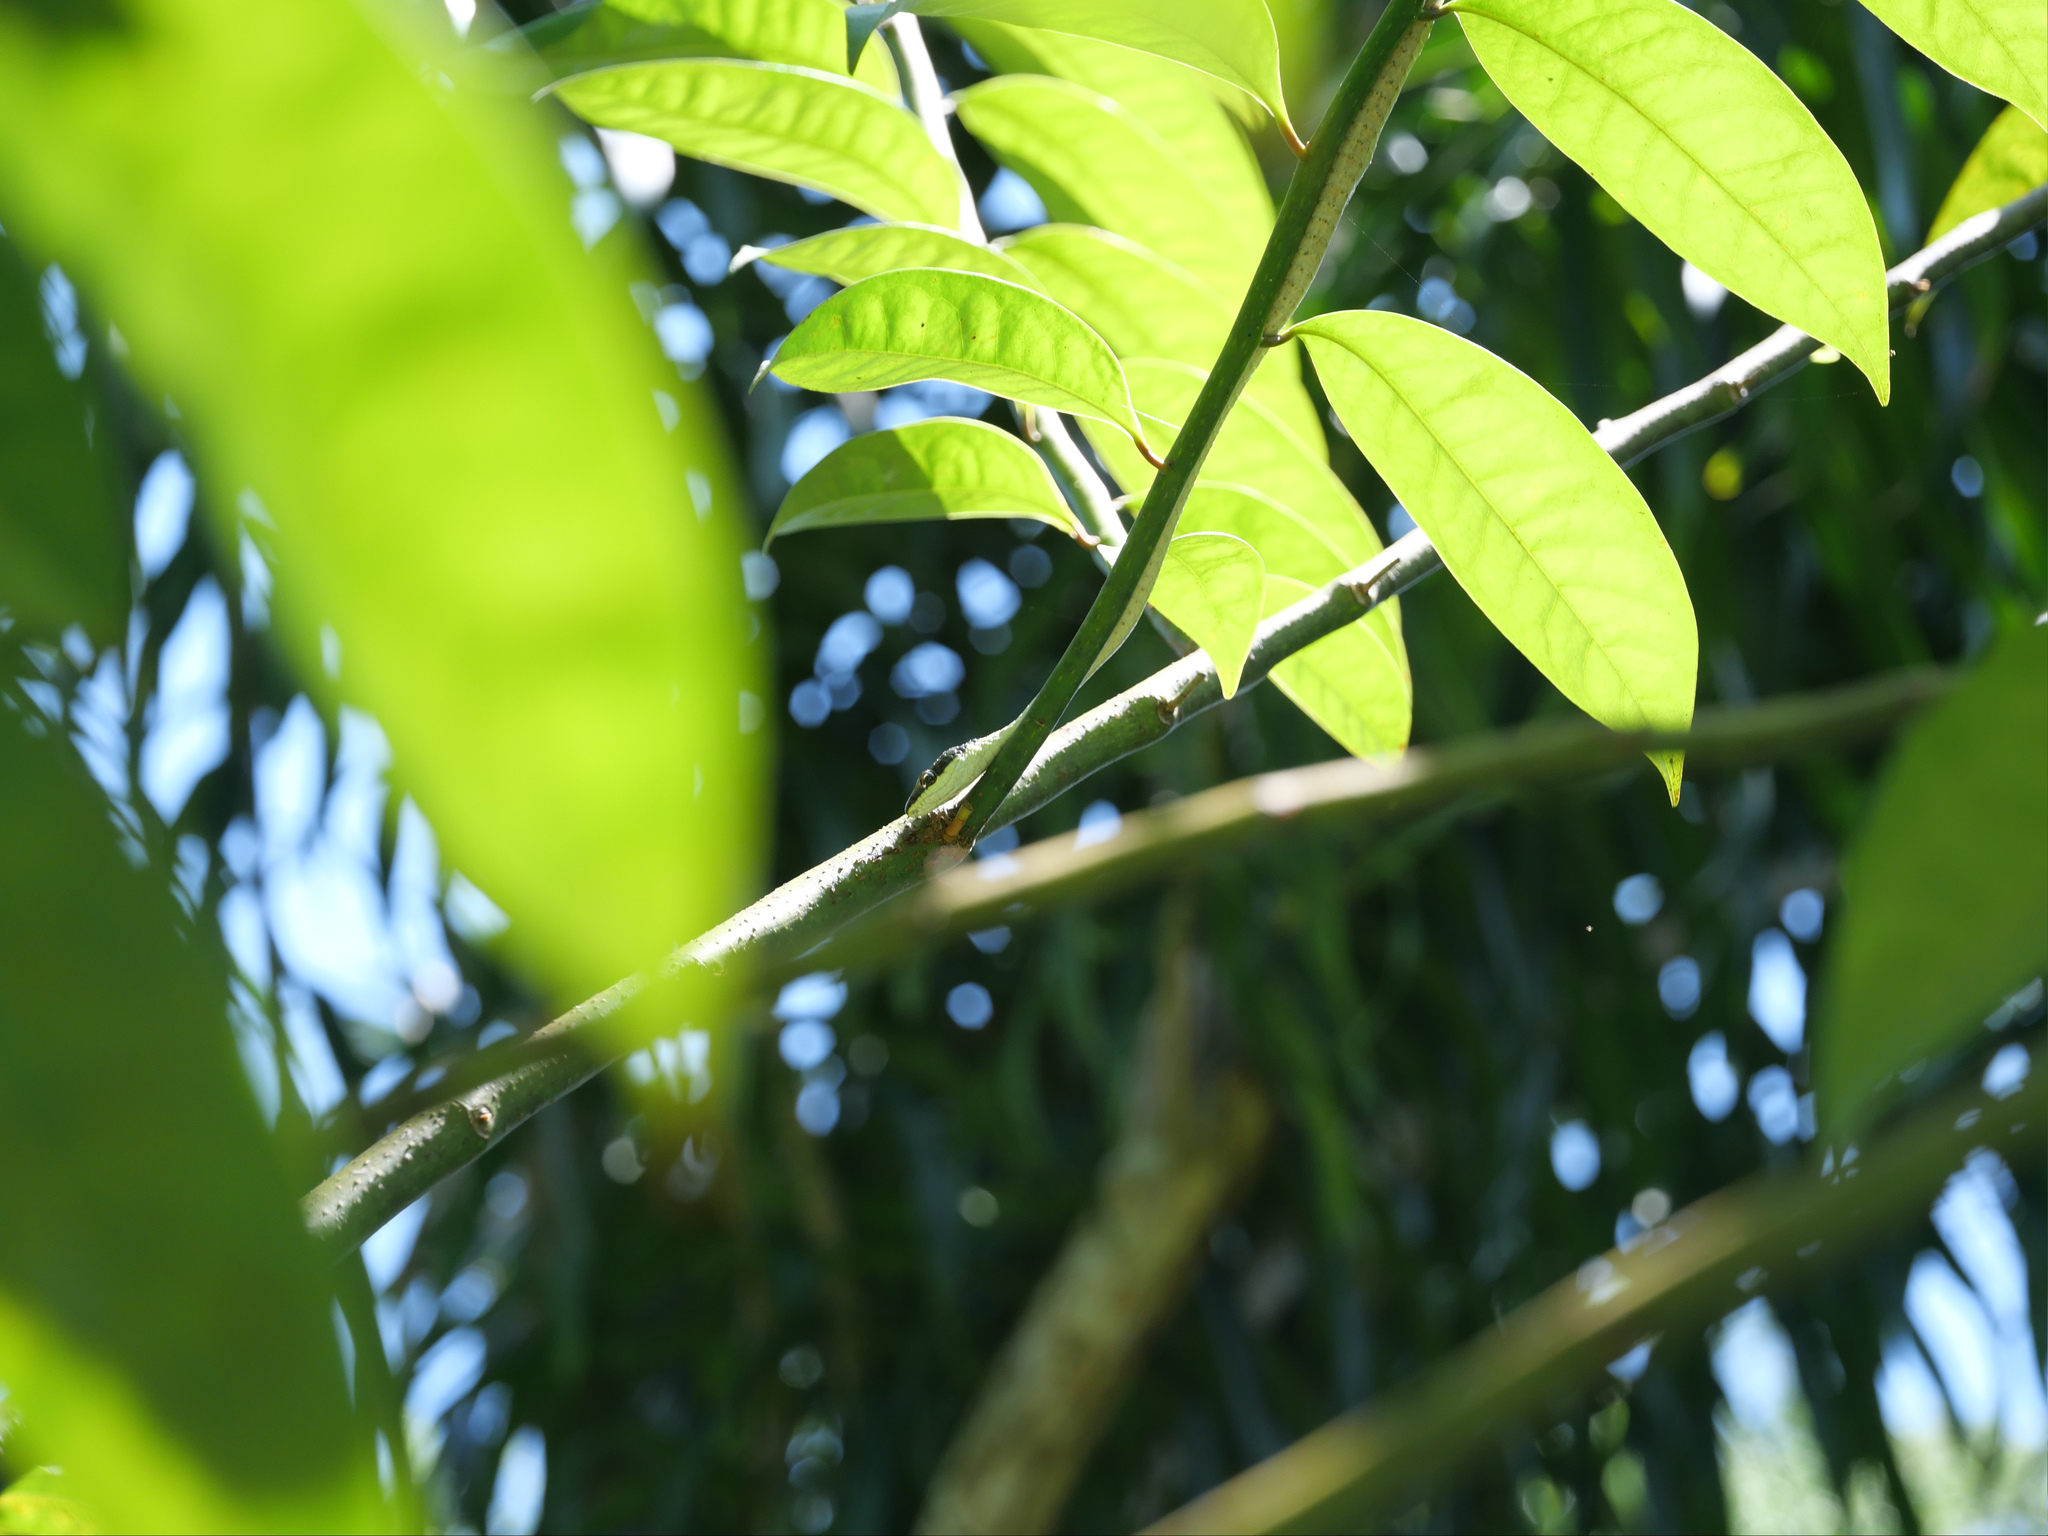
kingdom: Animalia
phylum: Chordata
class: Squamata
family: Colubridae
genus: Dendrelaphis
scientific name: Dendrelaphis calligaster
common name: Green tree snake
